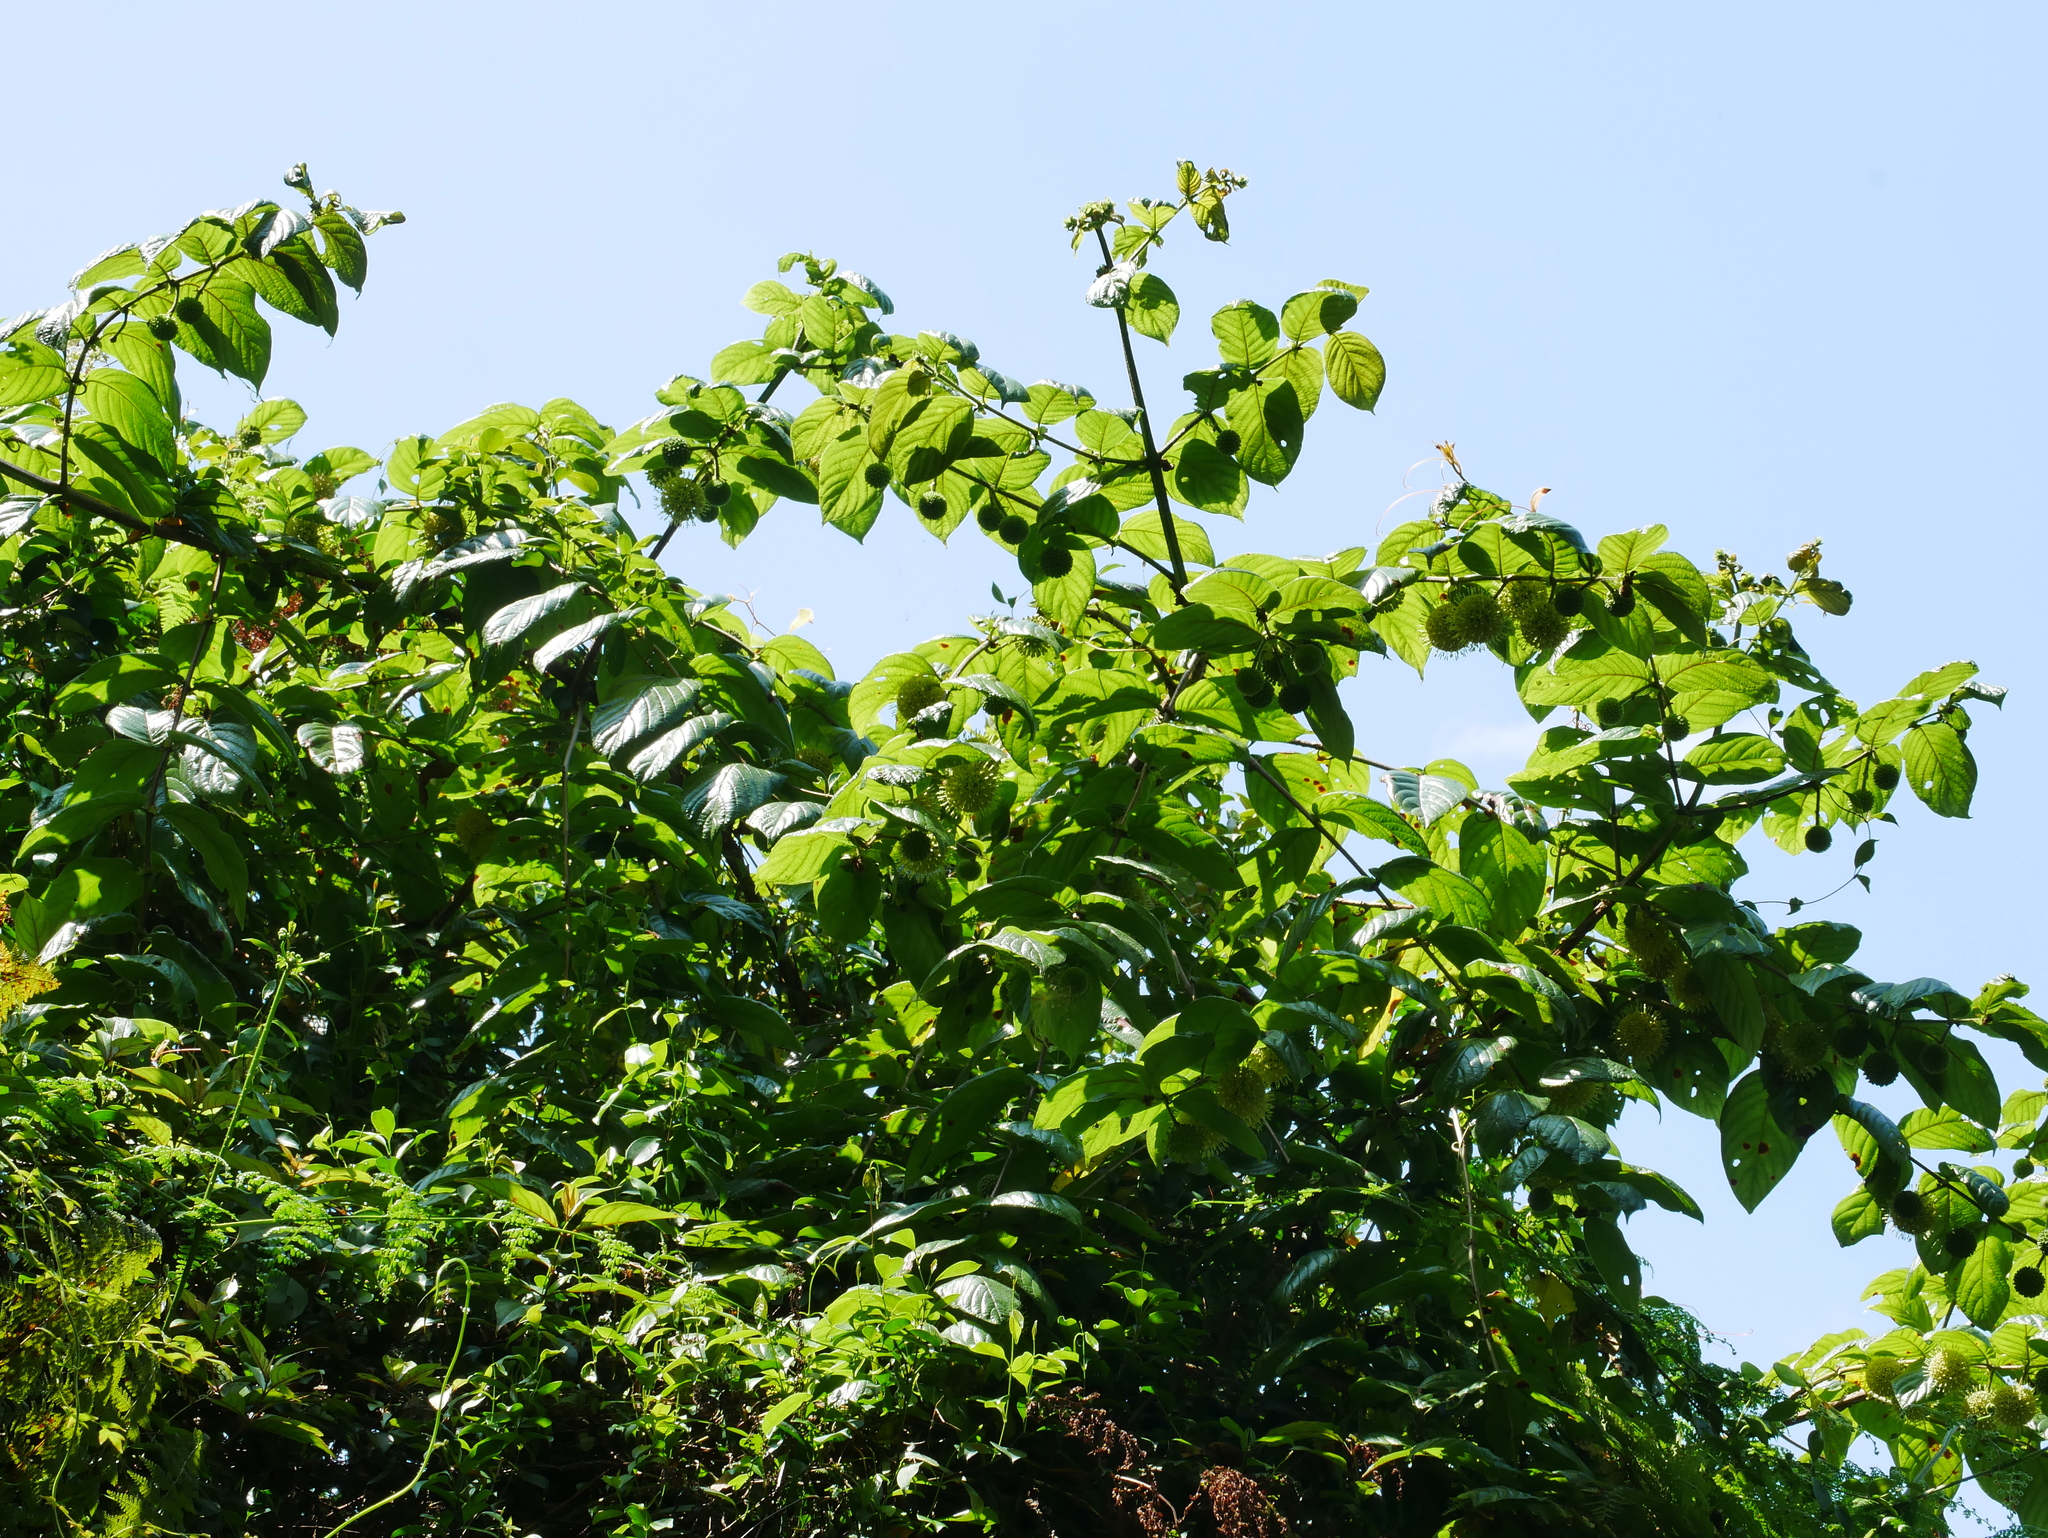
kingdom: Plantae
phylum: Tracheophyta
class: Magnoliopsida
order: Gentianales
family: Rubiaceae
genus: Uncaria
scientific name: Uncaria hirsuta
